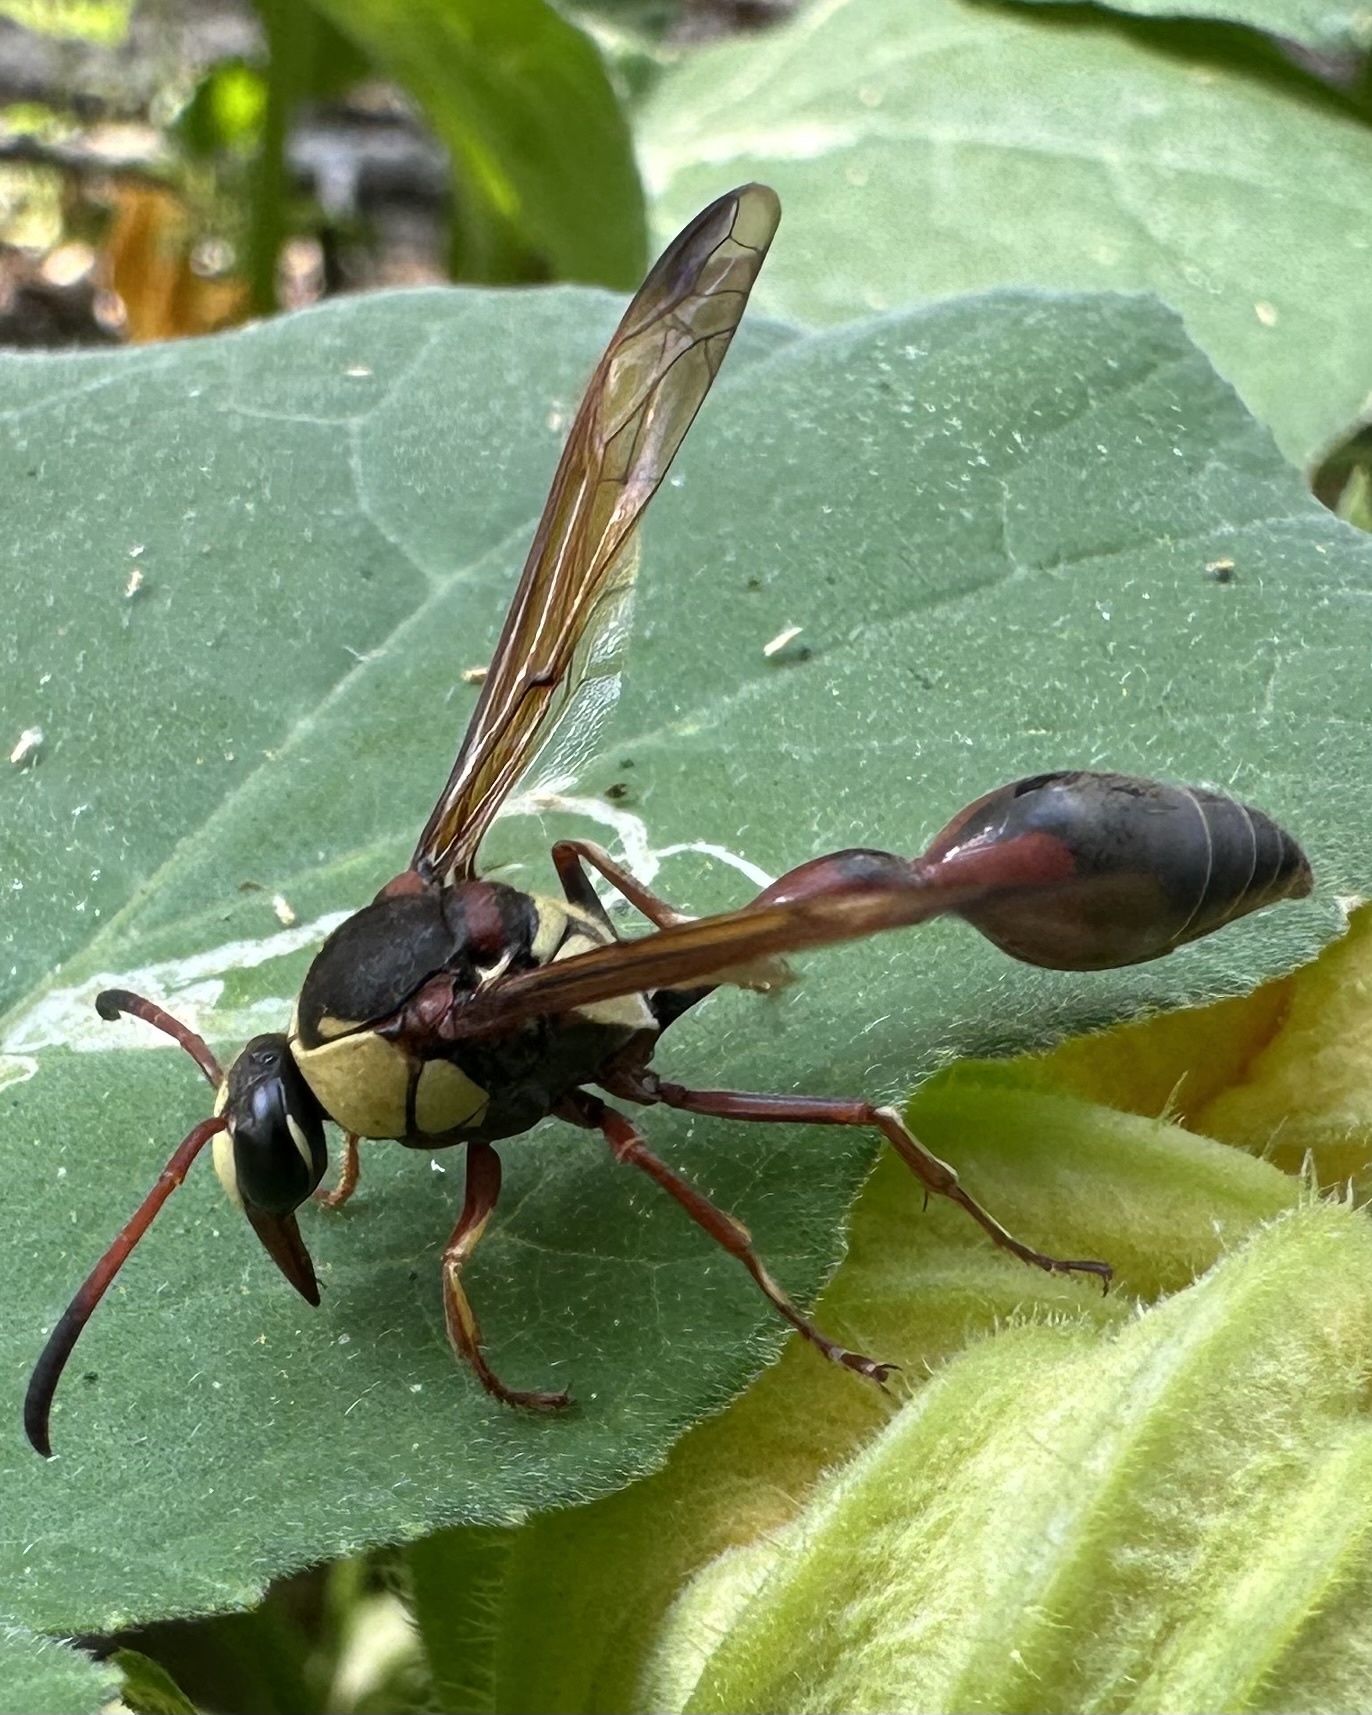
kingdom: Animalia
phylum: Arthropoda
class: Insecta
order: Hymenoptera
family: Eumenidae
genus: Delta
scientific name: Delta tropicale
